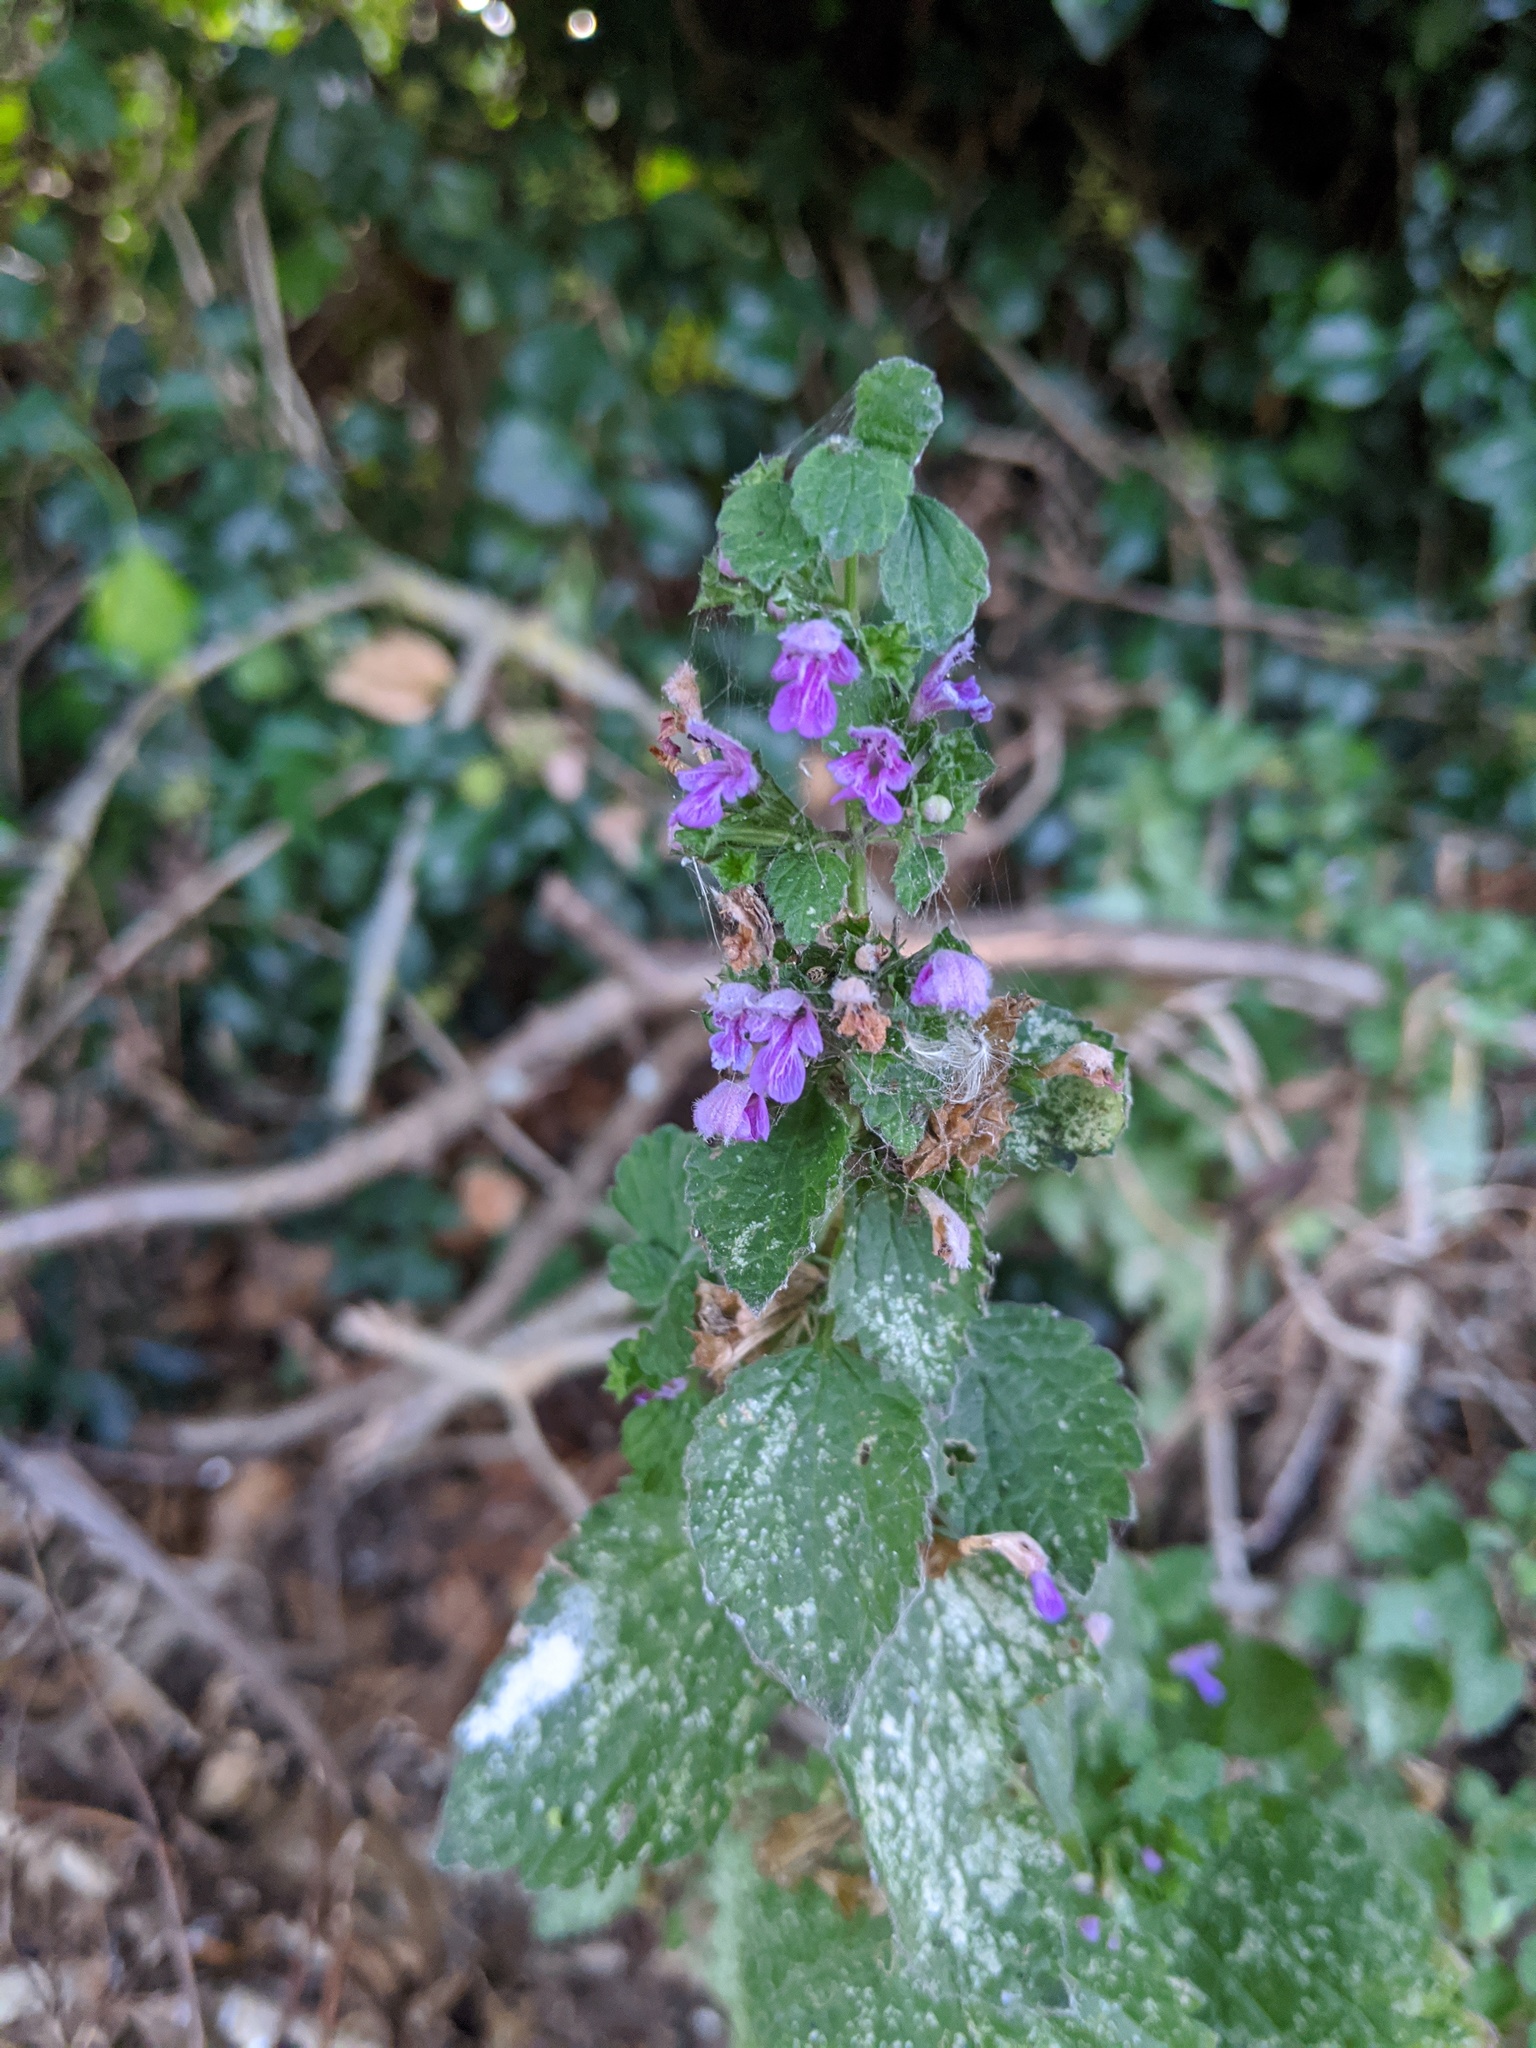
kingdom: Plantae
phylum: Tracheophyta
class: Magnoliopsida
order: Lamiales
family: Lamiaceae
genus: Ballota
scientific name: Ballota nigra
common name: Black horehound
